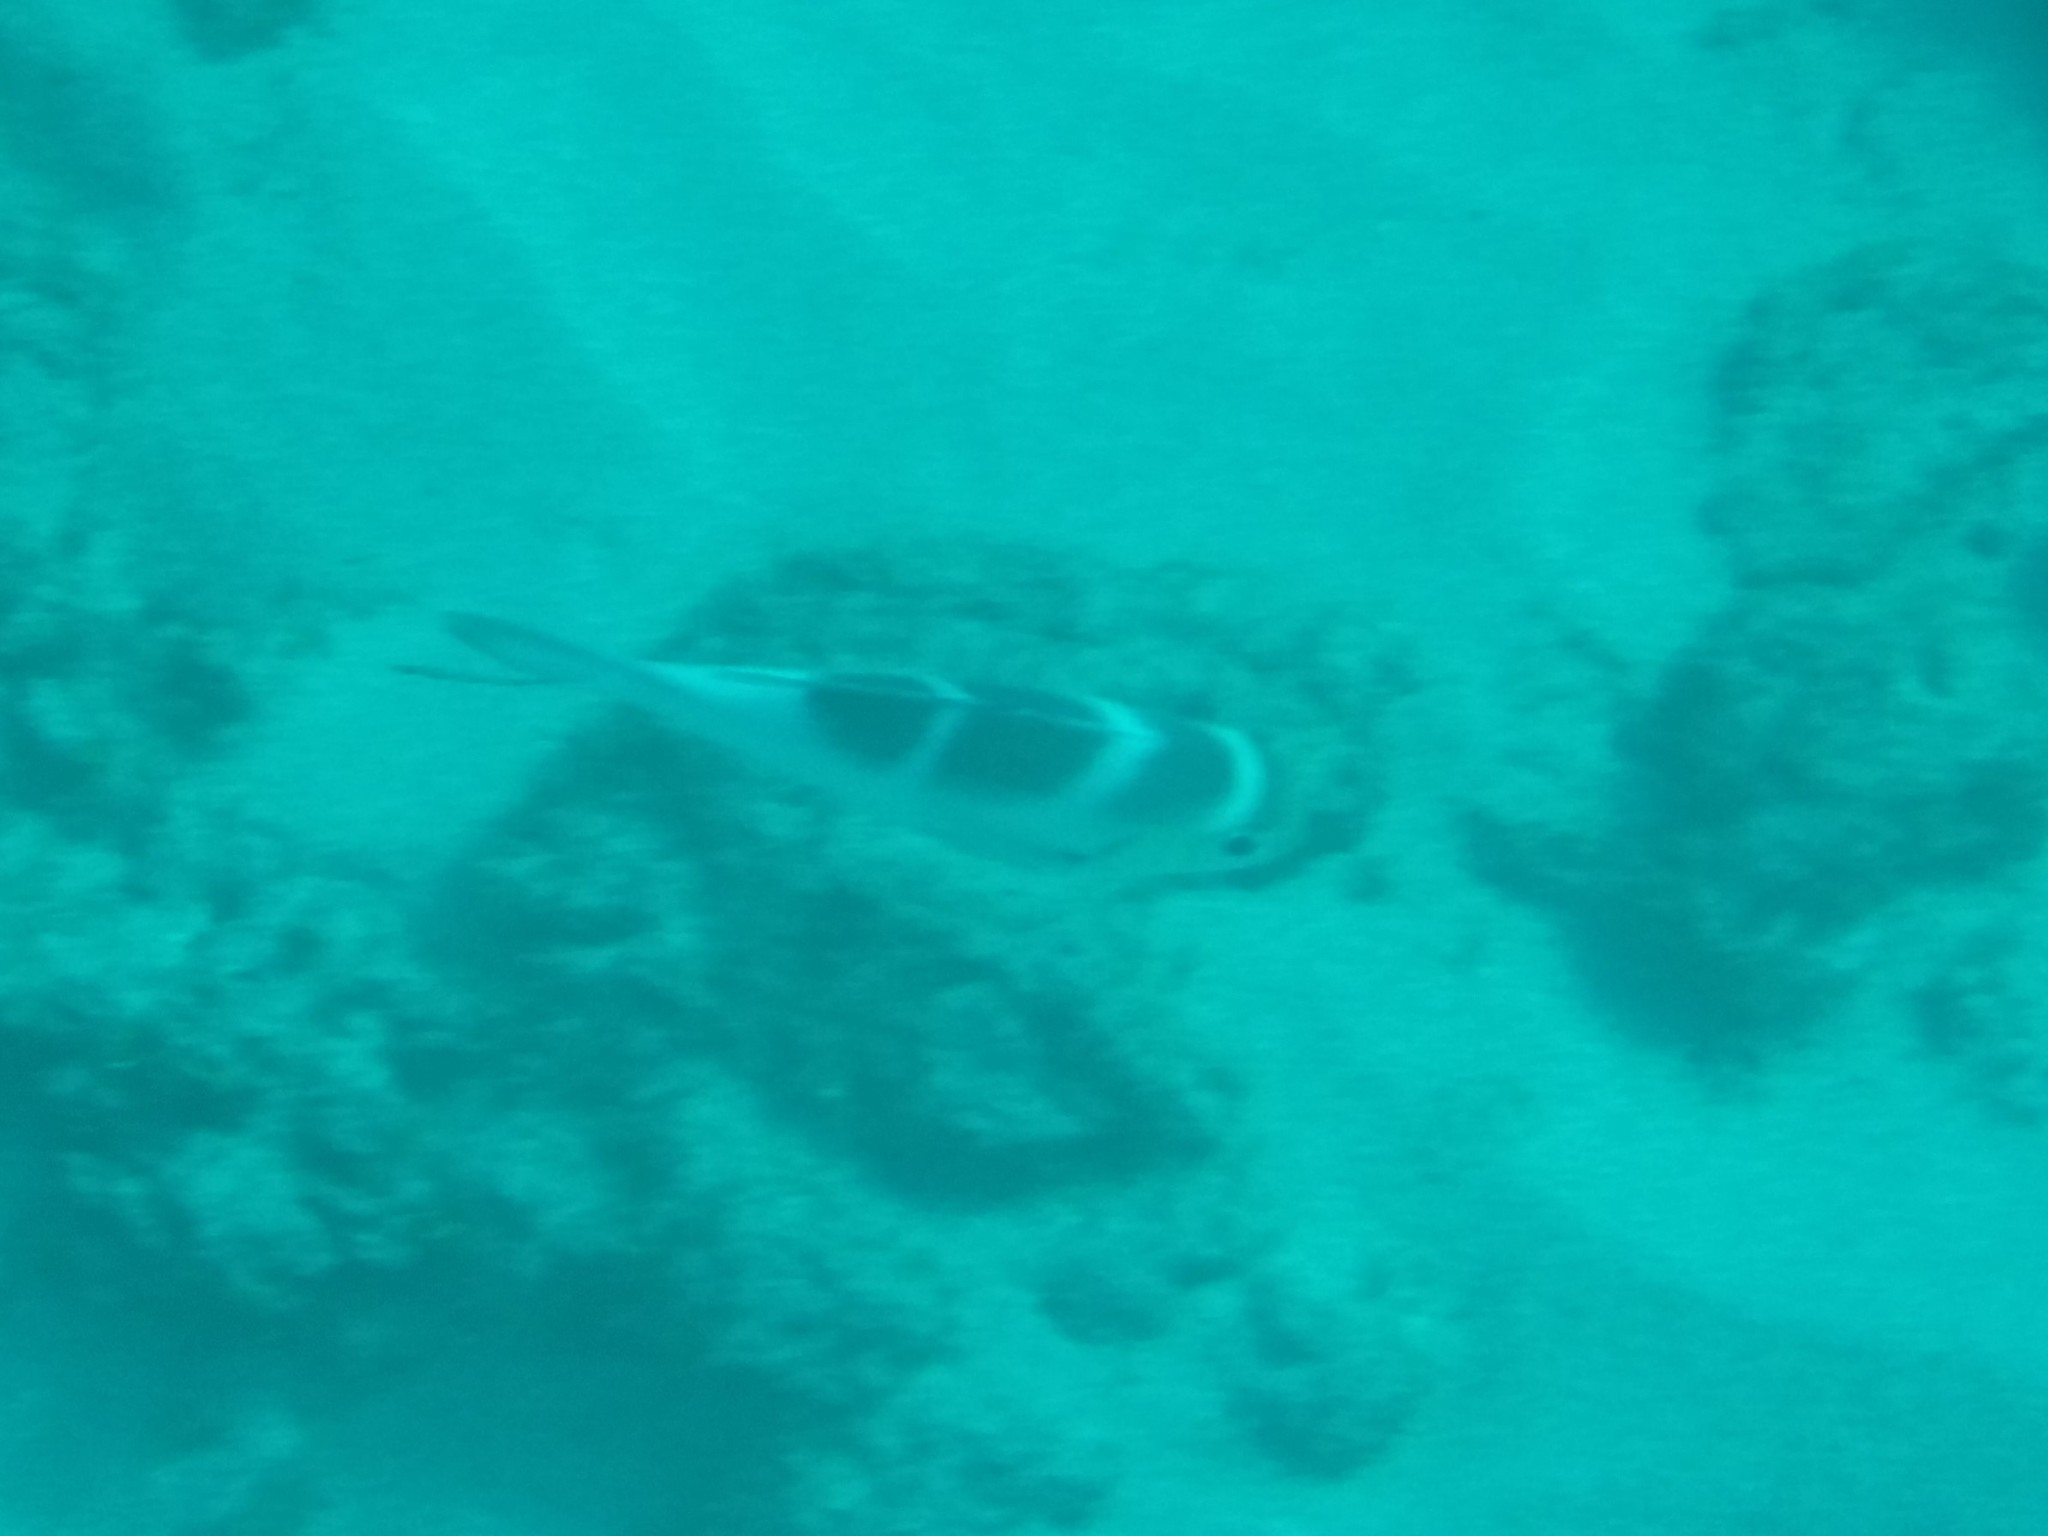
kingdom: Animalia
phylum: Chordata
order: Perciformes
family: Lethrinidae
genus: Monotaxis
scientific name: Monotaxis grandoculis
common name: Bigeye emperor
